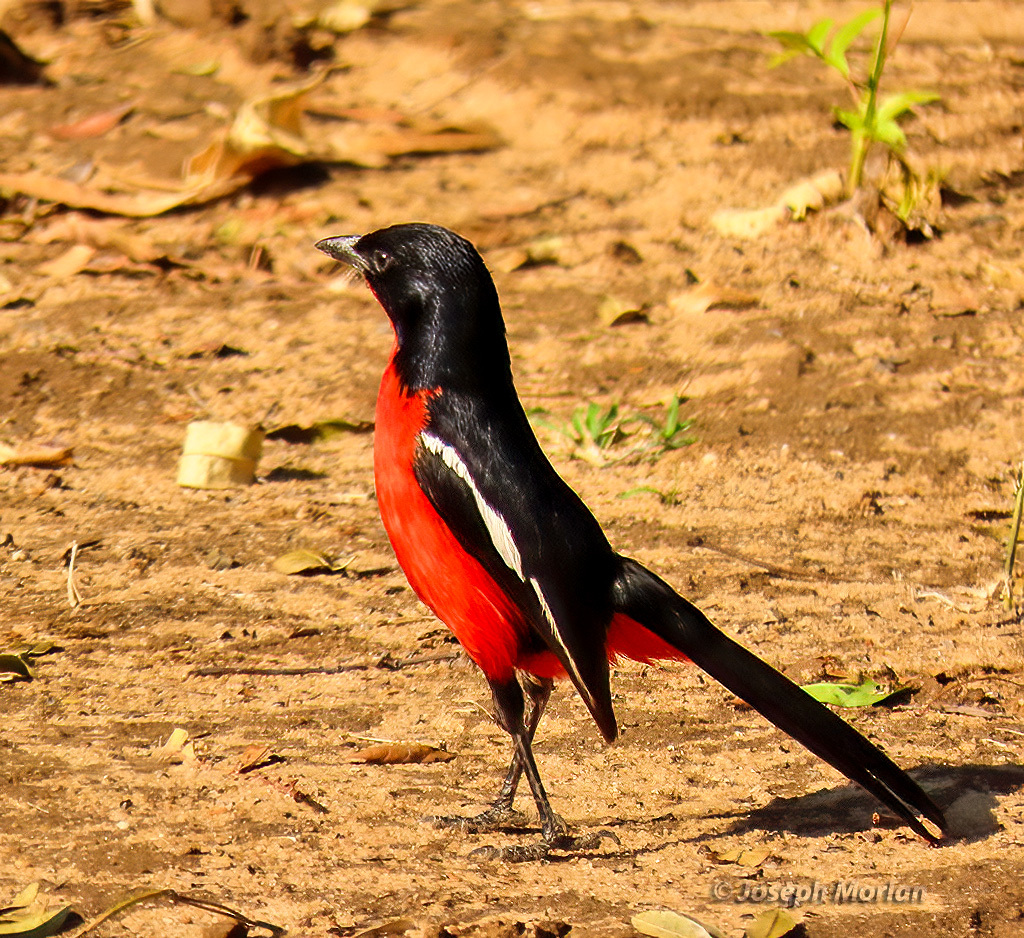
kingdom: Animalia
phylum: Chordata
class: Aves
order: Passeriformes
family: Malaconotidae
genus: Laniarius
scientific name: Laniarius atrococcineus
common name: Crimson-breasted shrike
